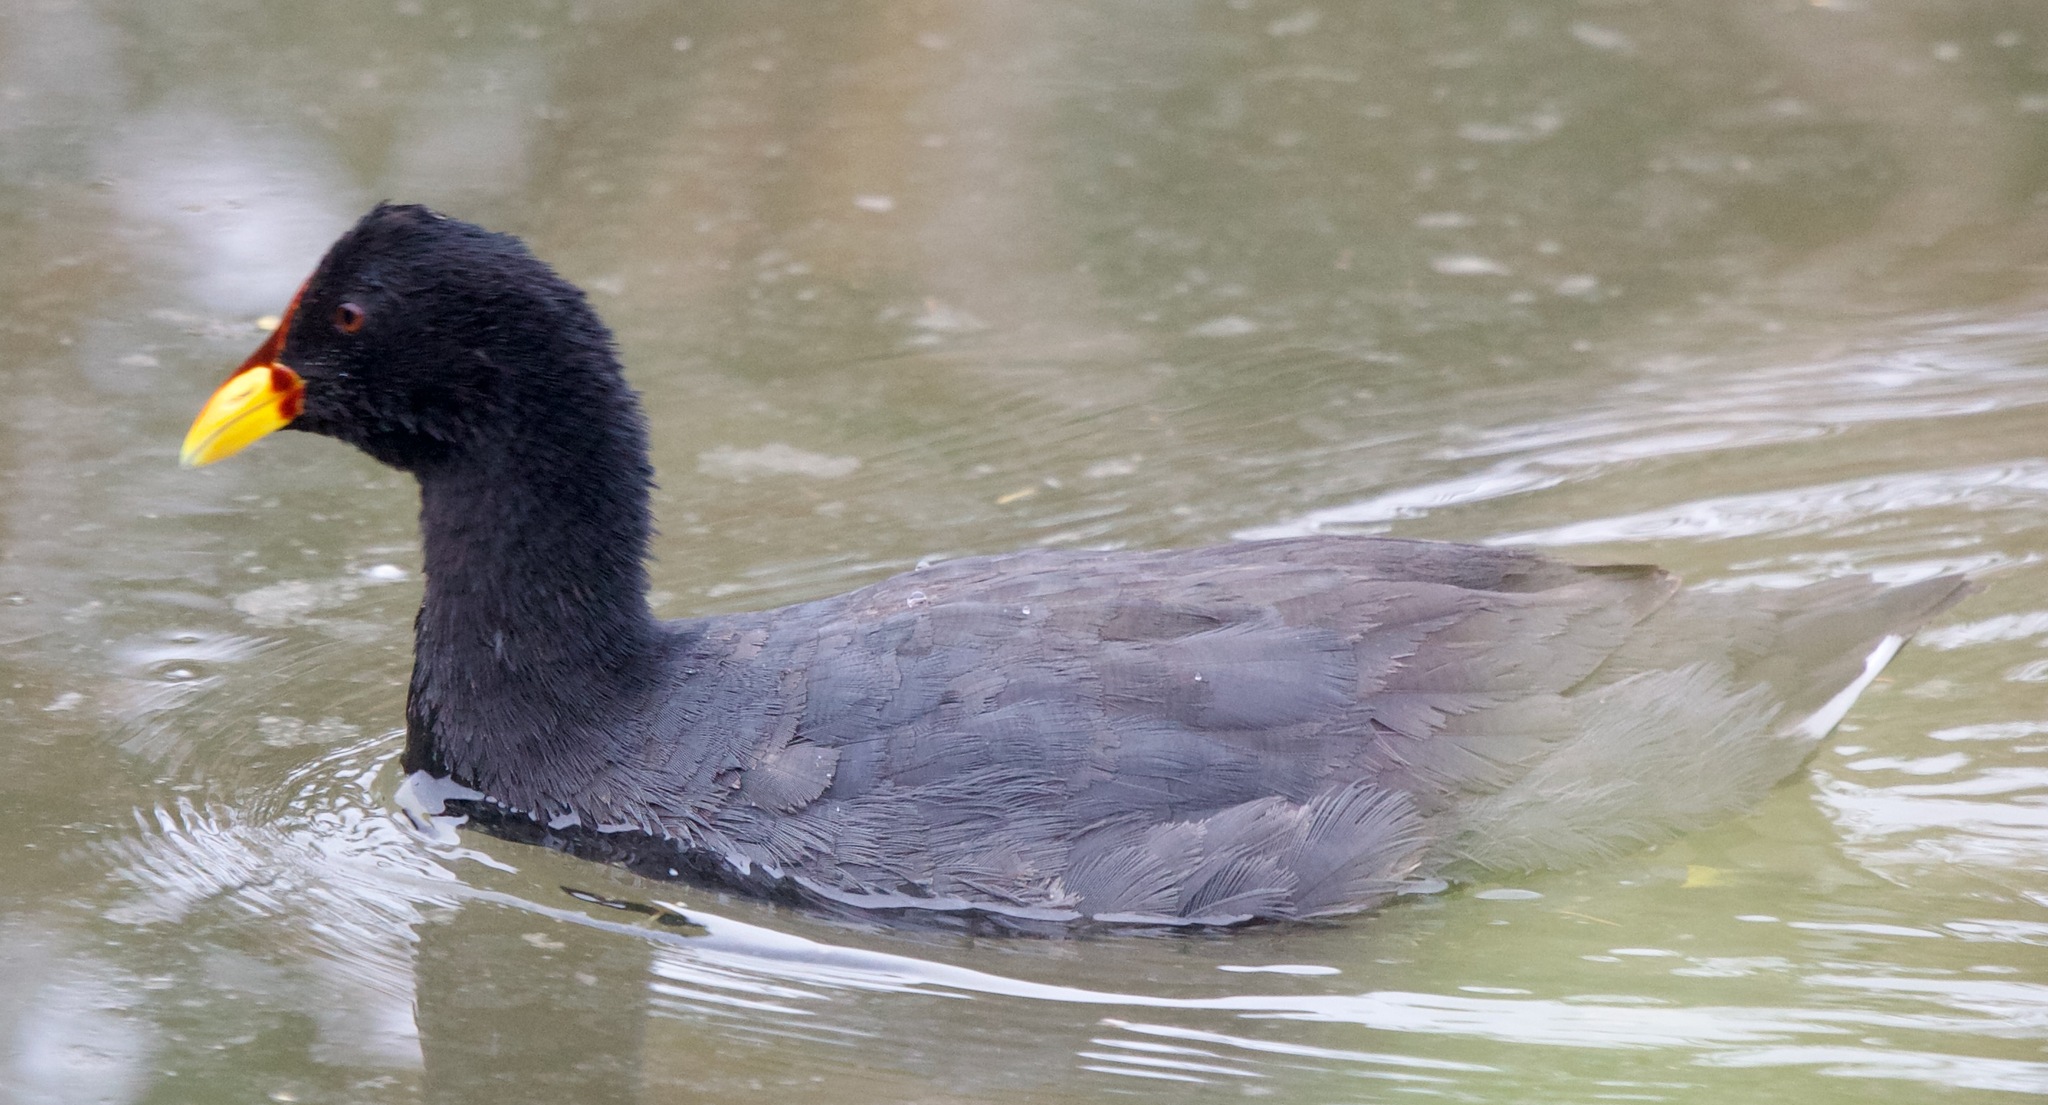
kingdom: Animalia
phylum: Chordata
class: Aves
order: Gruiformes
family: Rallidae
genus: Fulica
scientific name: Fulica rufifrons
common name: Red-fronted coot
